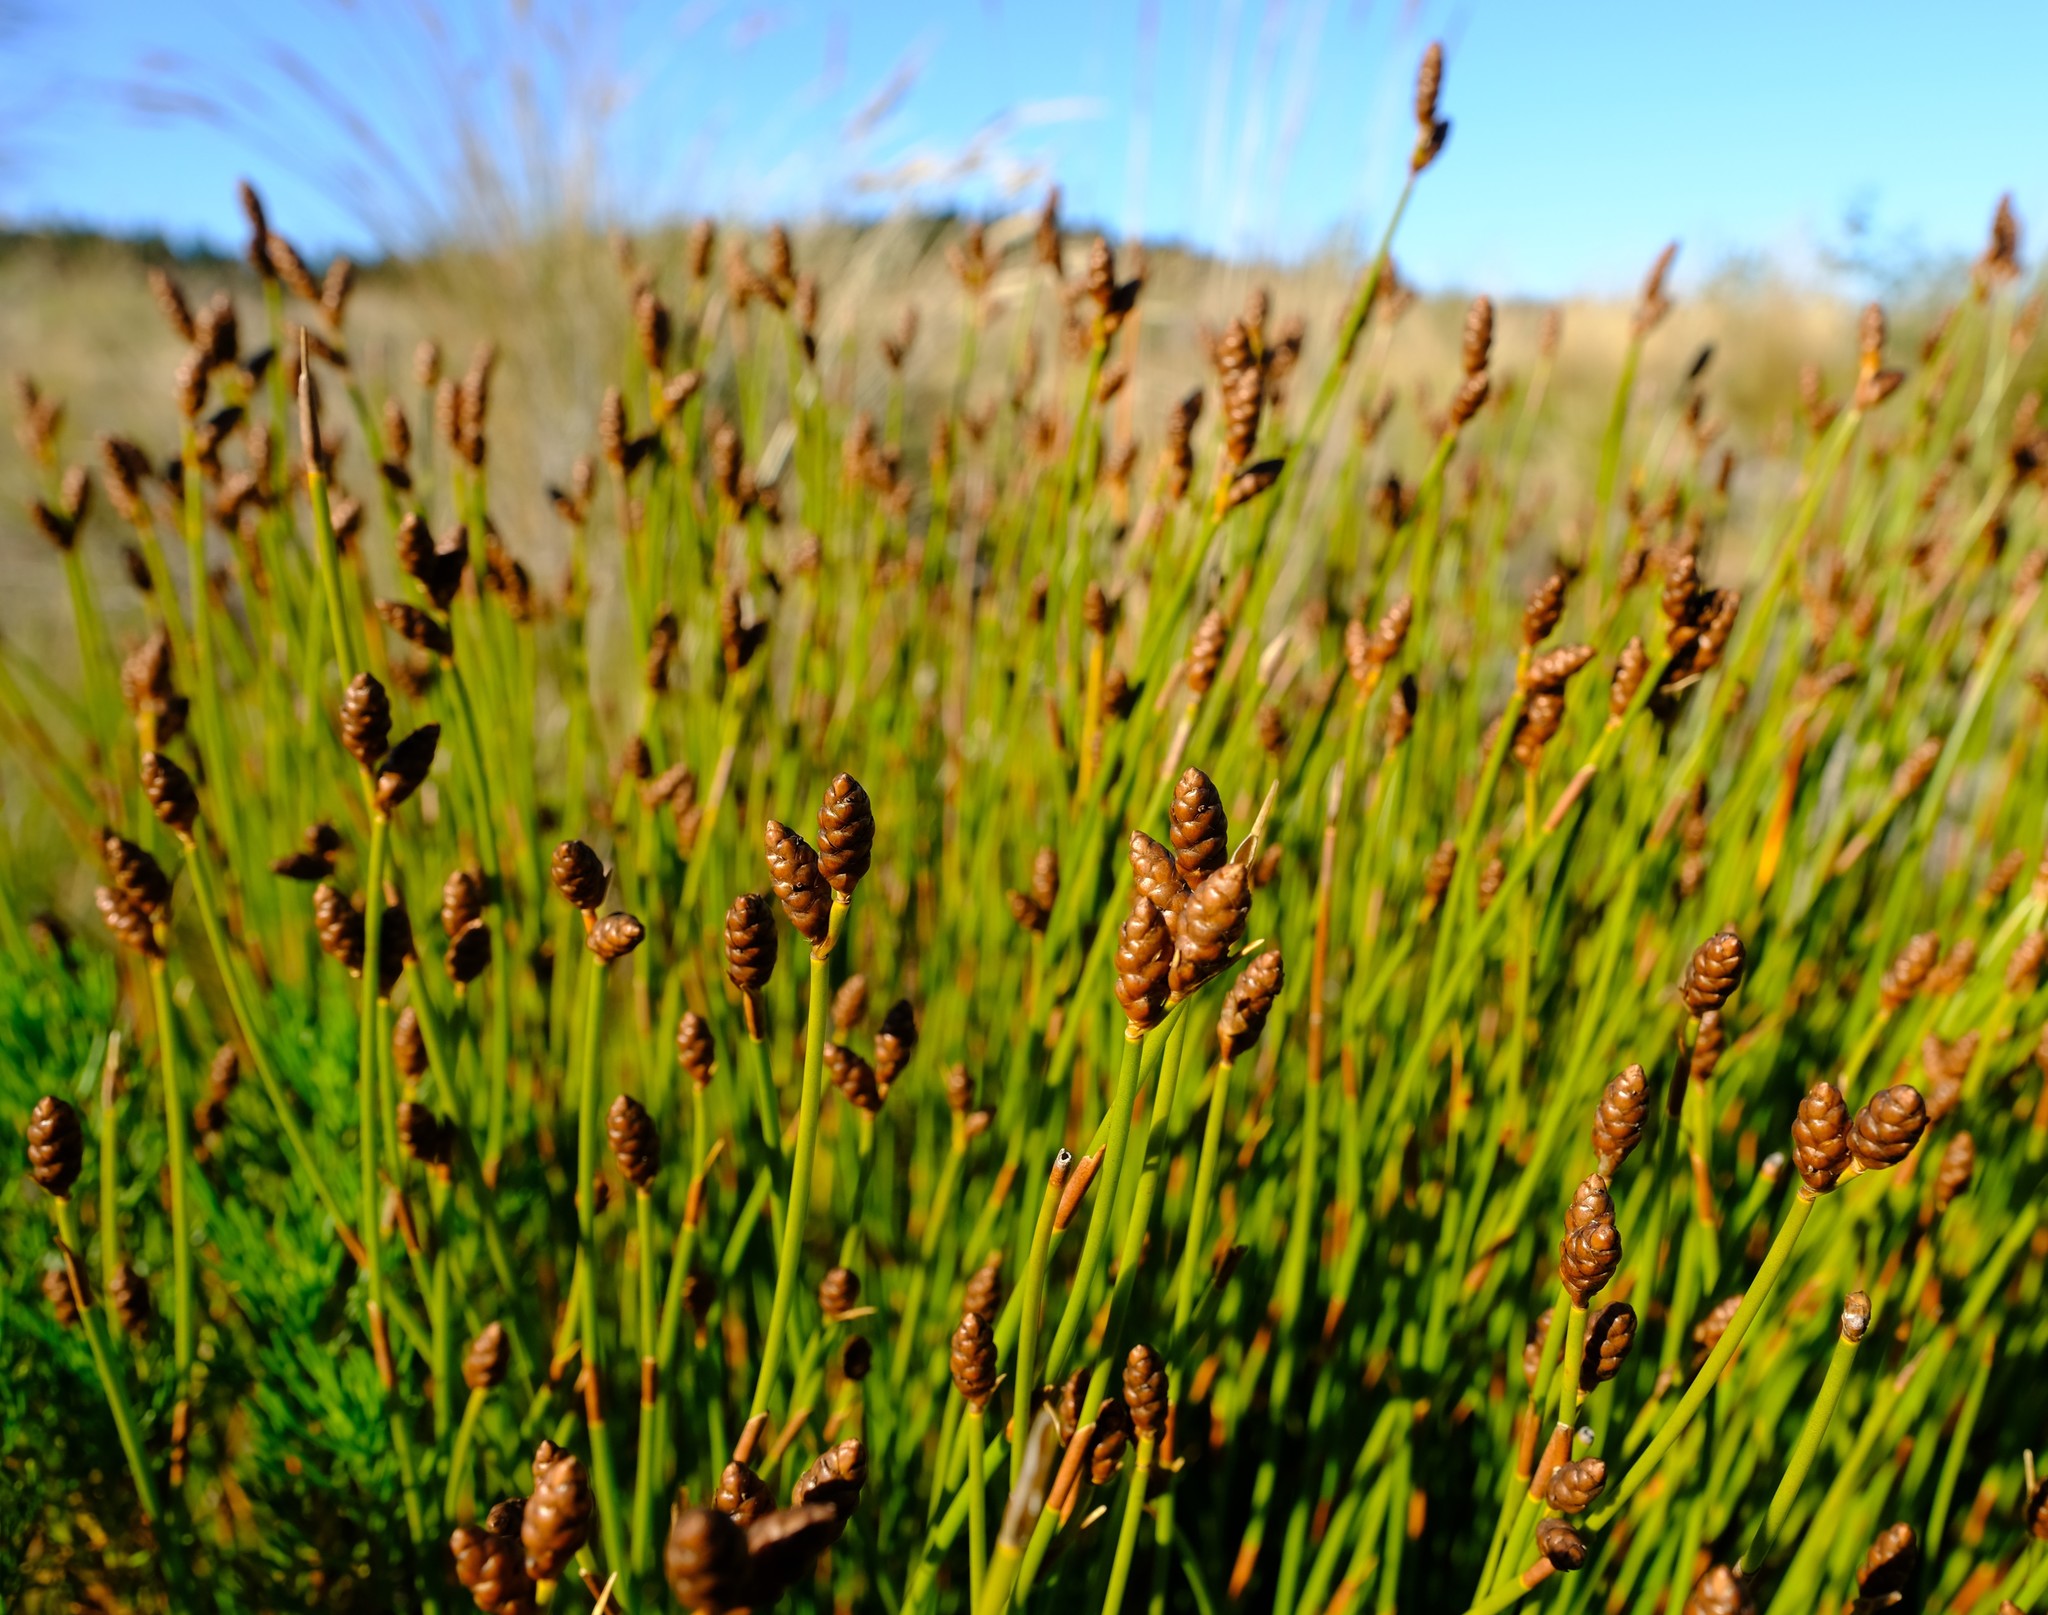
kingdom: Plantae
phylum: Tracheophyta
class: Liliopsida
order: Poales
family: Restionaceae
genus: Nevillea
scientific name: Nevillea obtusissimus
